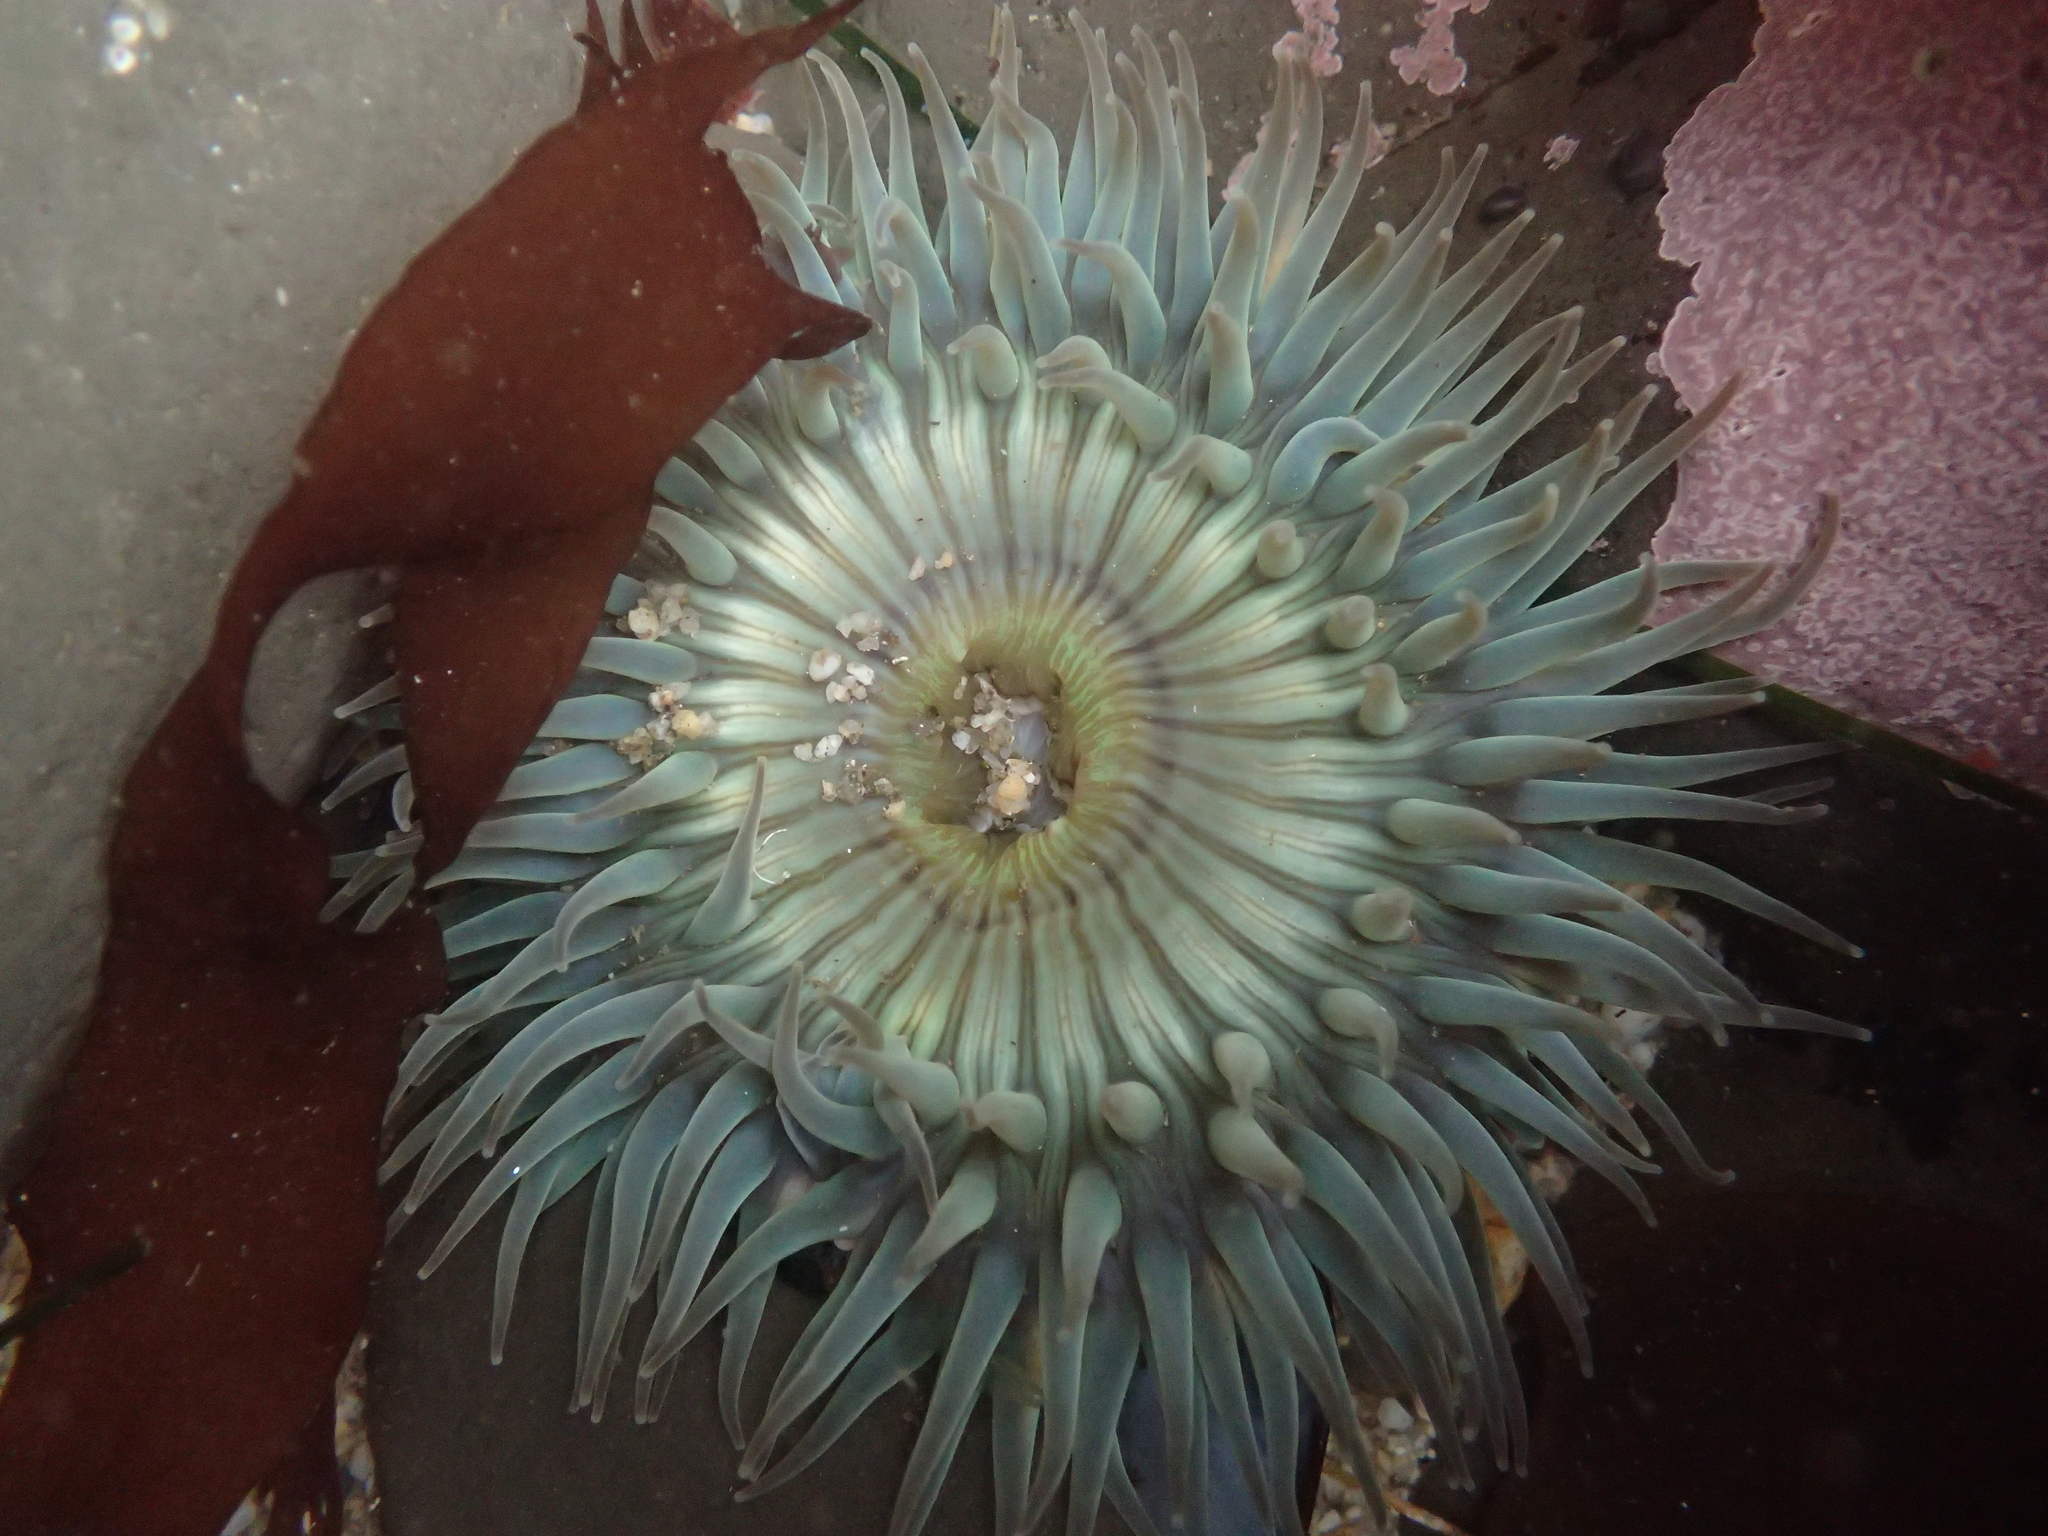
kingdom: Animalia
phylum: Cnidaria
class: Anthozoa
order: Actiniaria
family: Actiniidae
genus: Anthopleura
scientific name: Anthopleura sola
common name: Sun anemone
